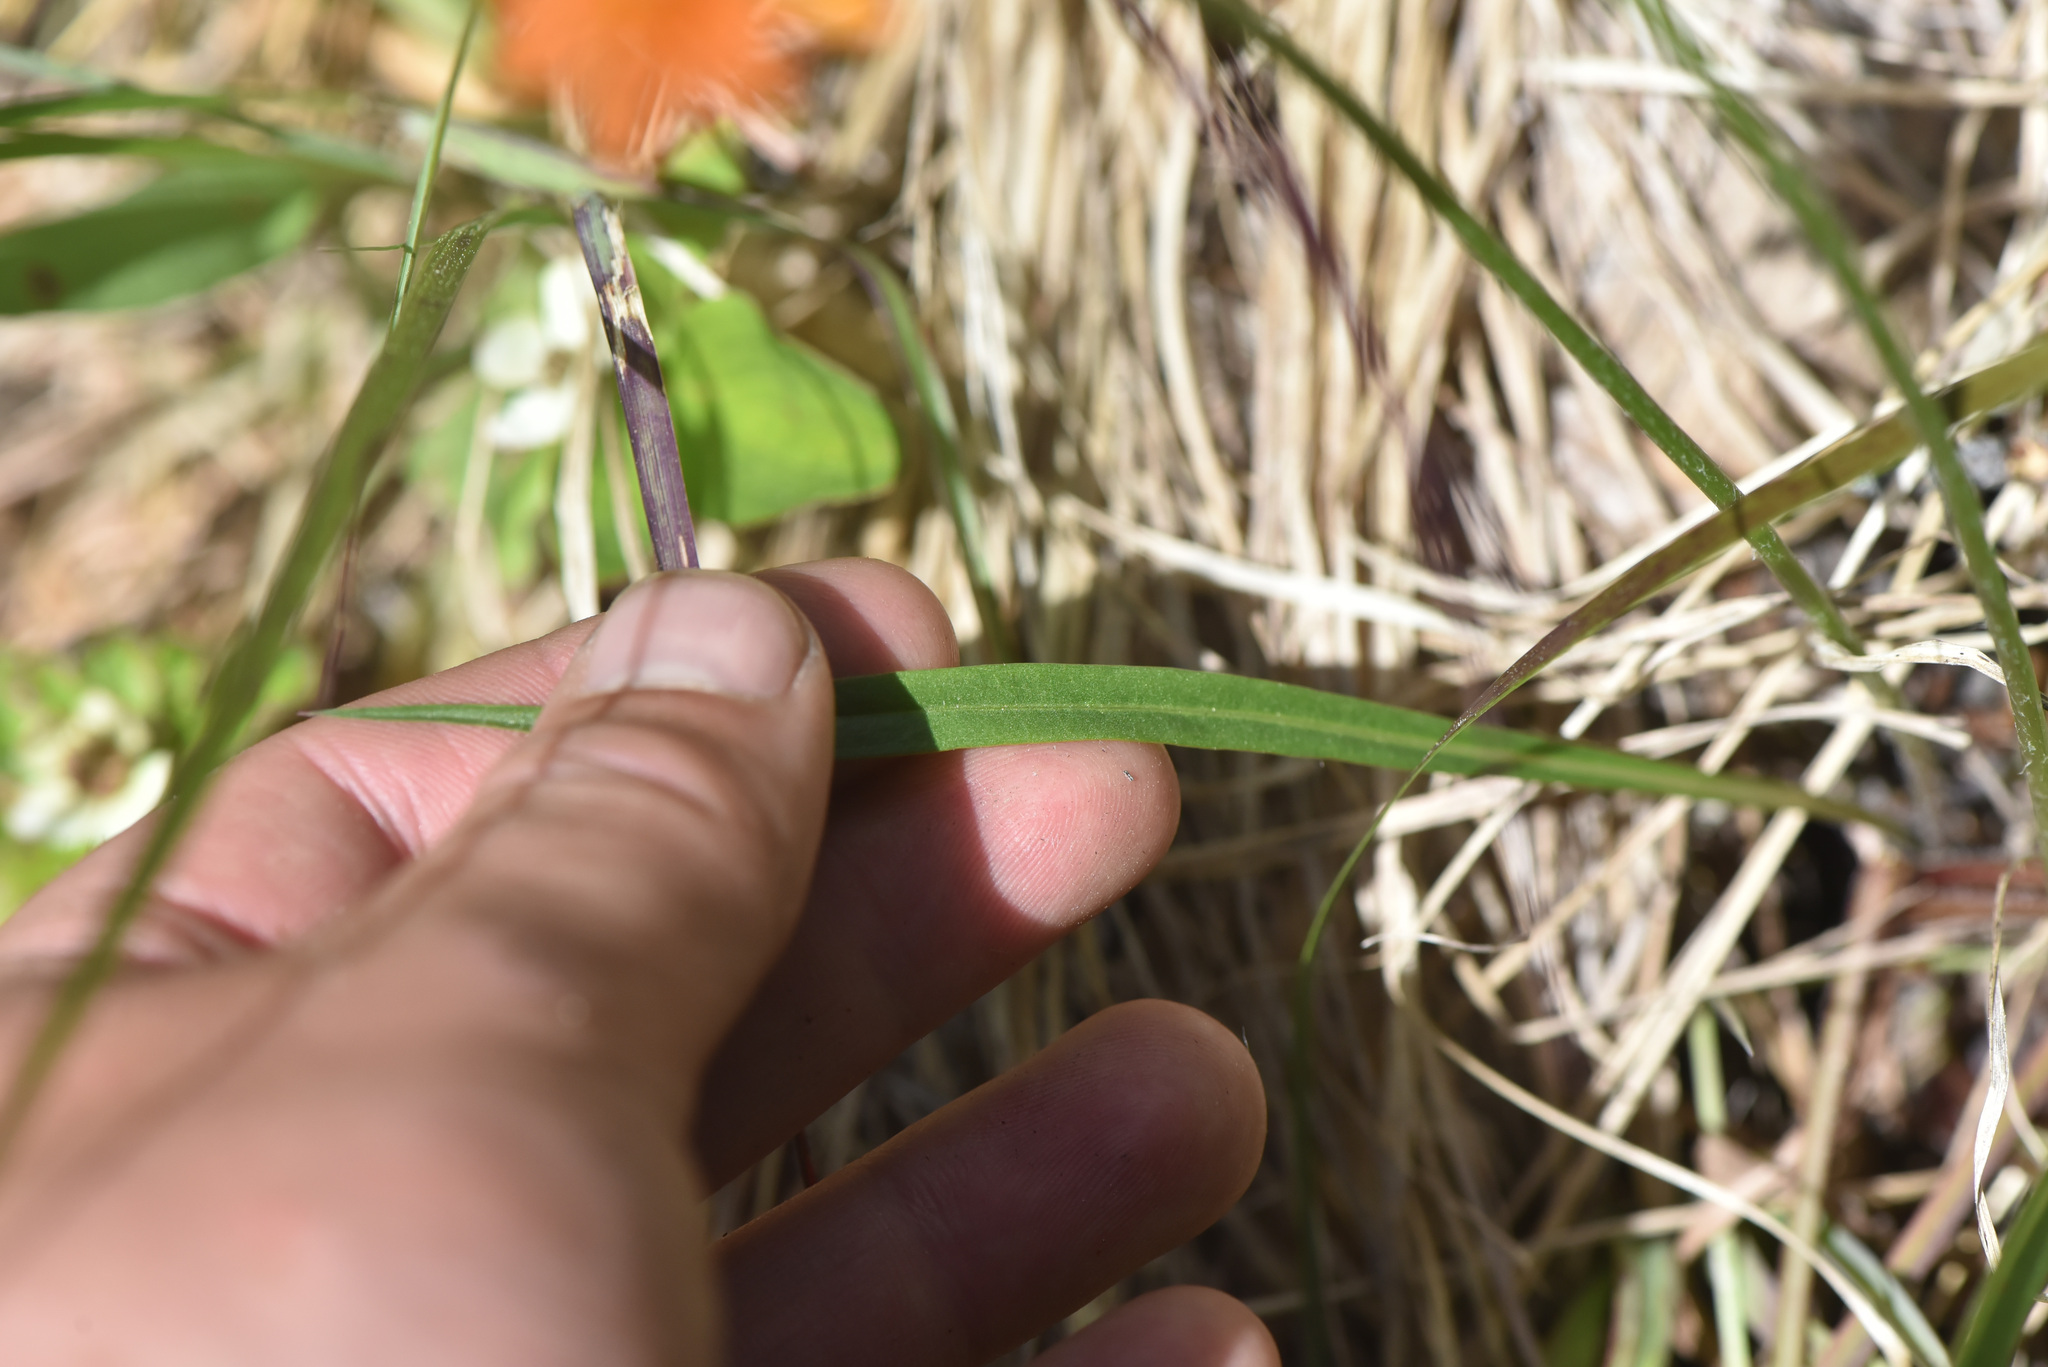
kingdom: Plantae
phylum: Tracheophyta
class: Magnoliopsida
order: Asterales
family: Asteraceae
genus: Agoseris
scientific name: Agoseris aurantiaca
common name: Mountain agoseris
